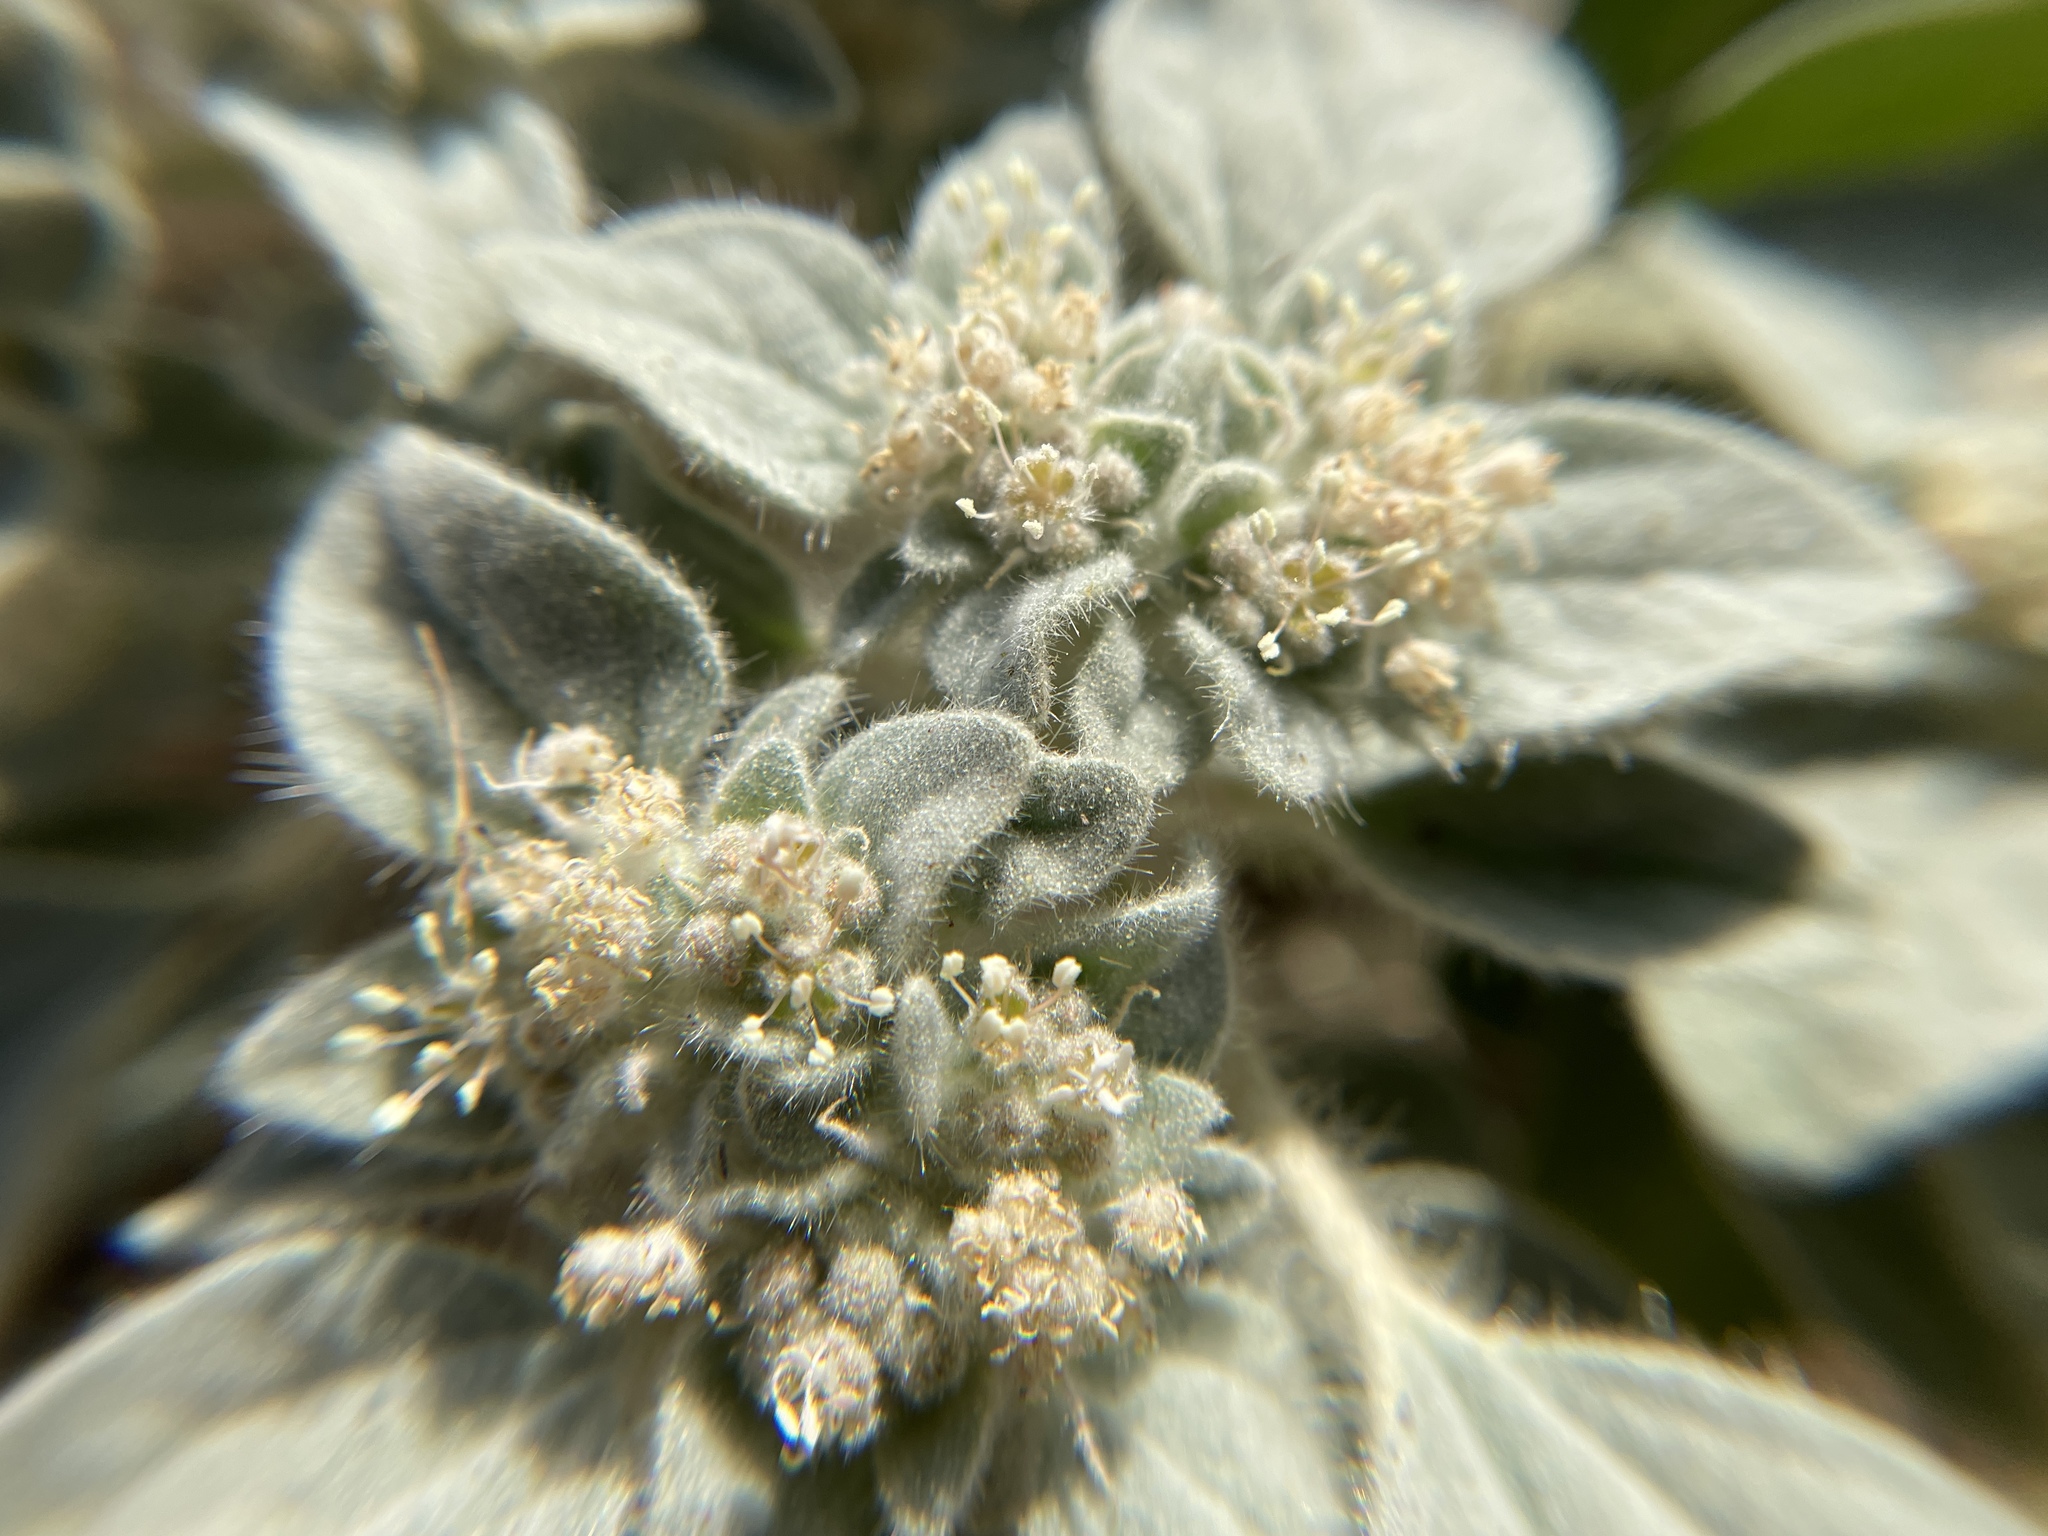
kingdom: Plantae
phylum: Tracheophyta
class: Magnoliopsida
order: Malpighiales
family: Euphorbiaceae
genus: Croton
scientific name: Croton setiger
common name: Dove weed
